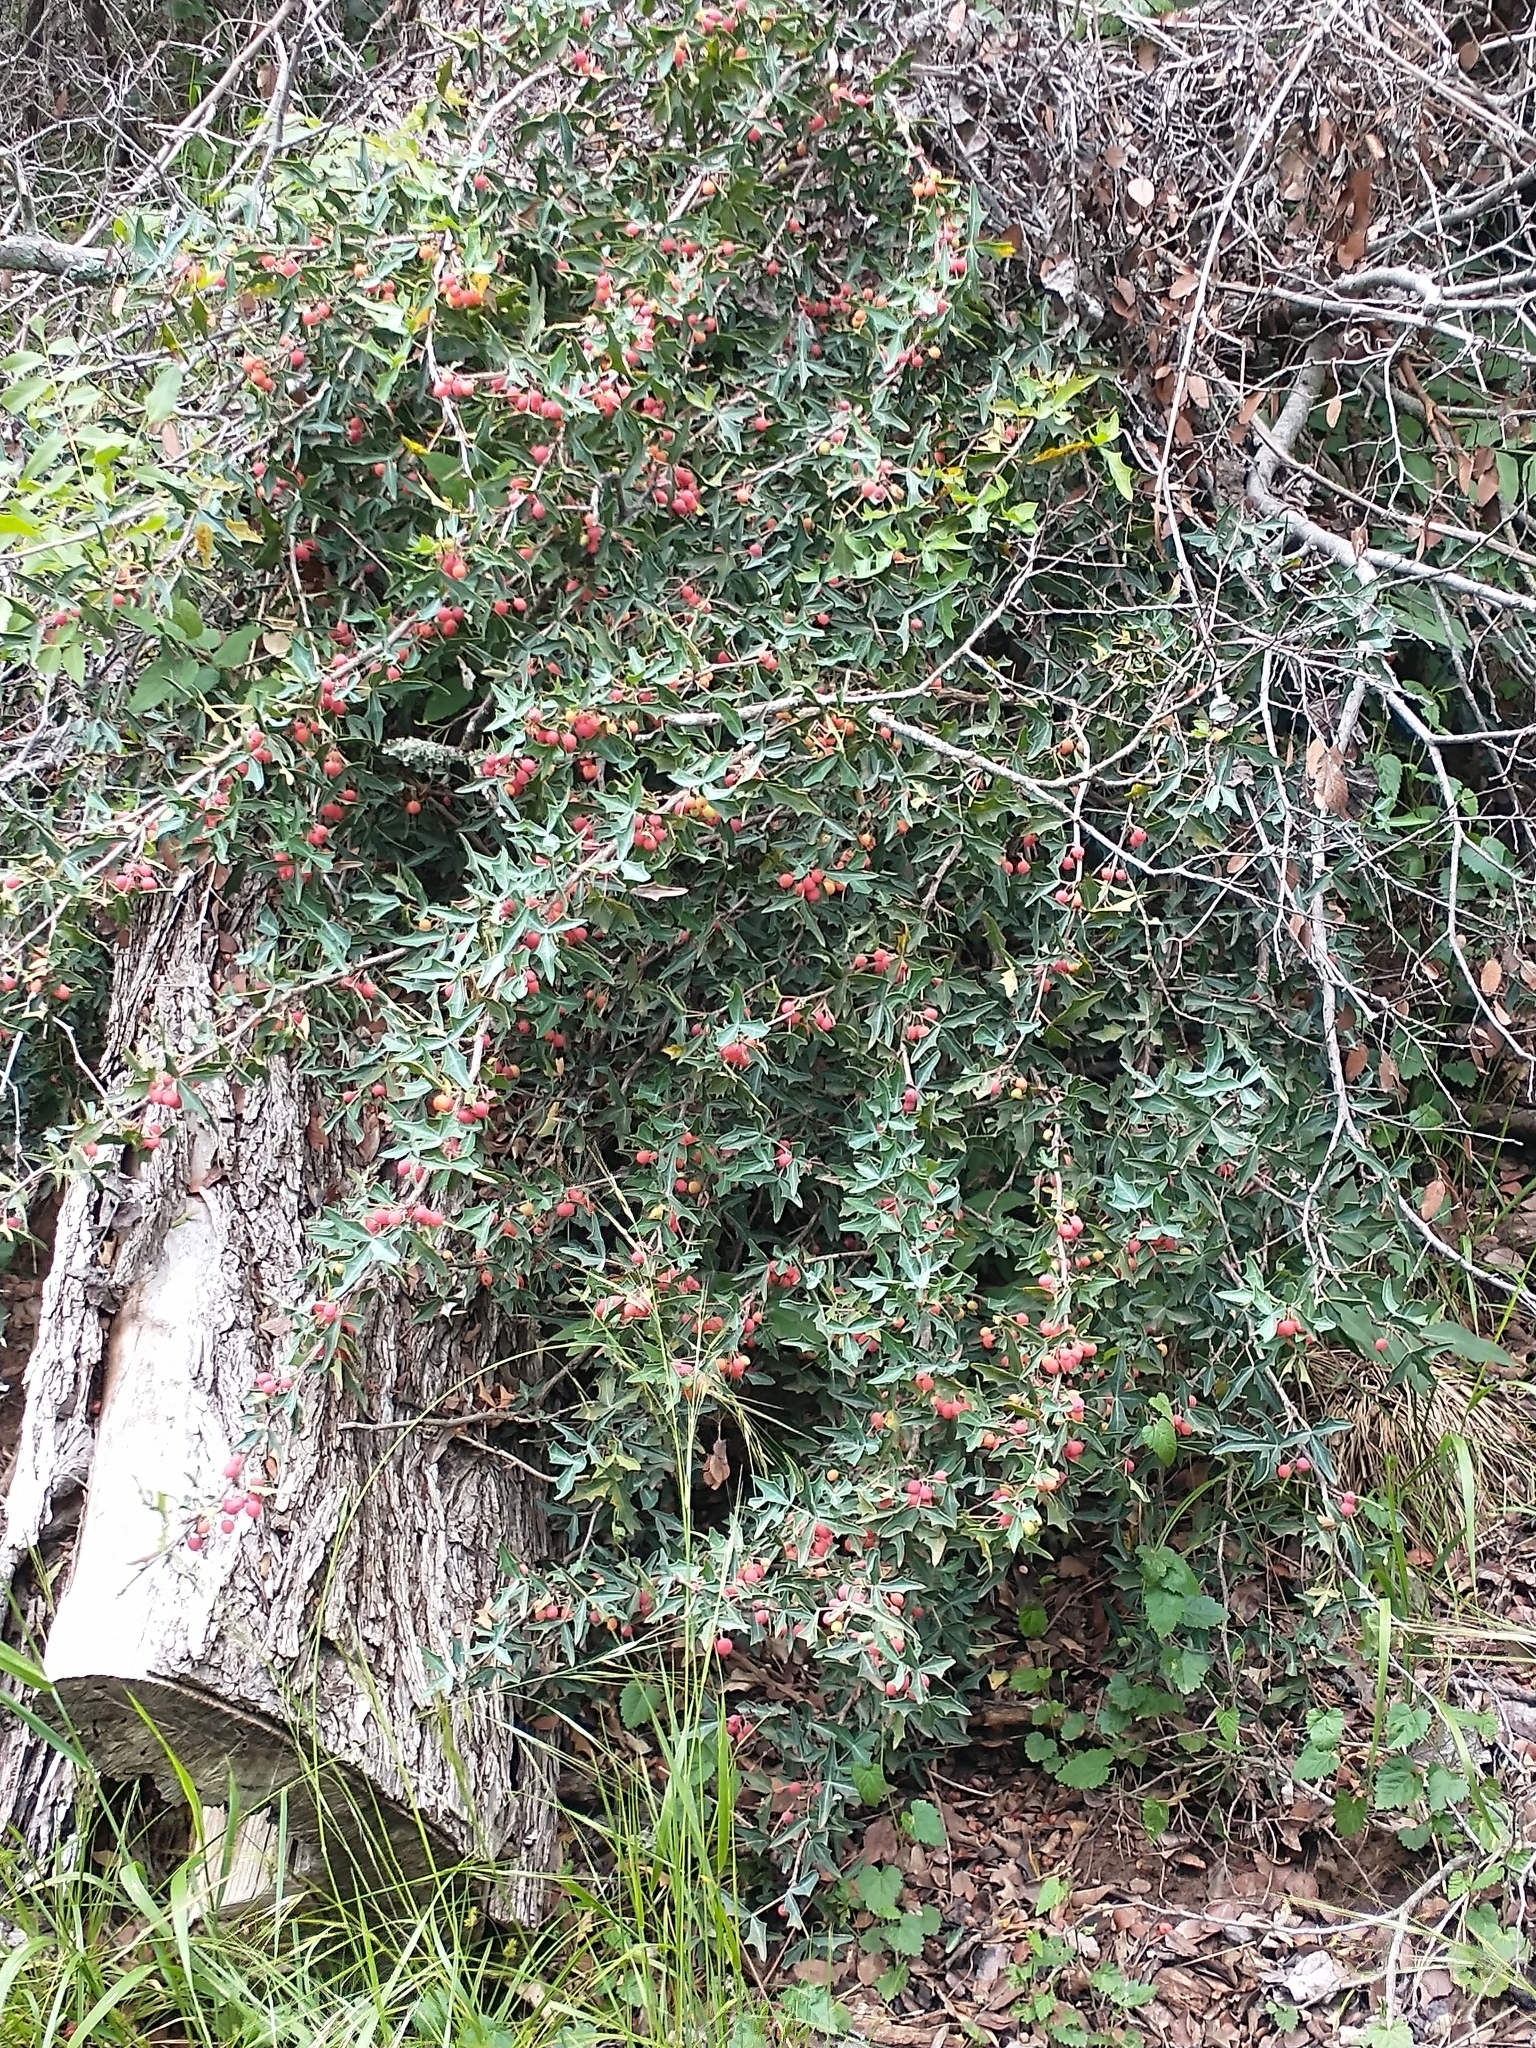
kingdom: Plantae
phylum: Tracheophyta
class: Magnoliopsida
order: Ranunculales
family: Berberidaceae
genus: Alloberberis
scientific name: Alloberberis trifoliolata
